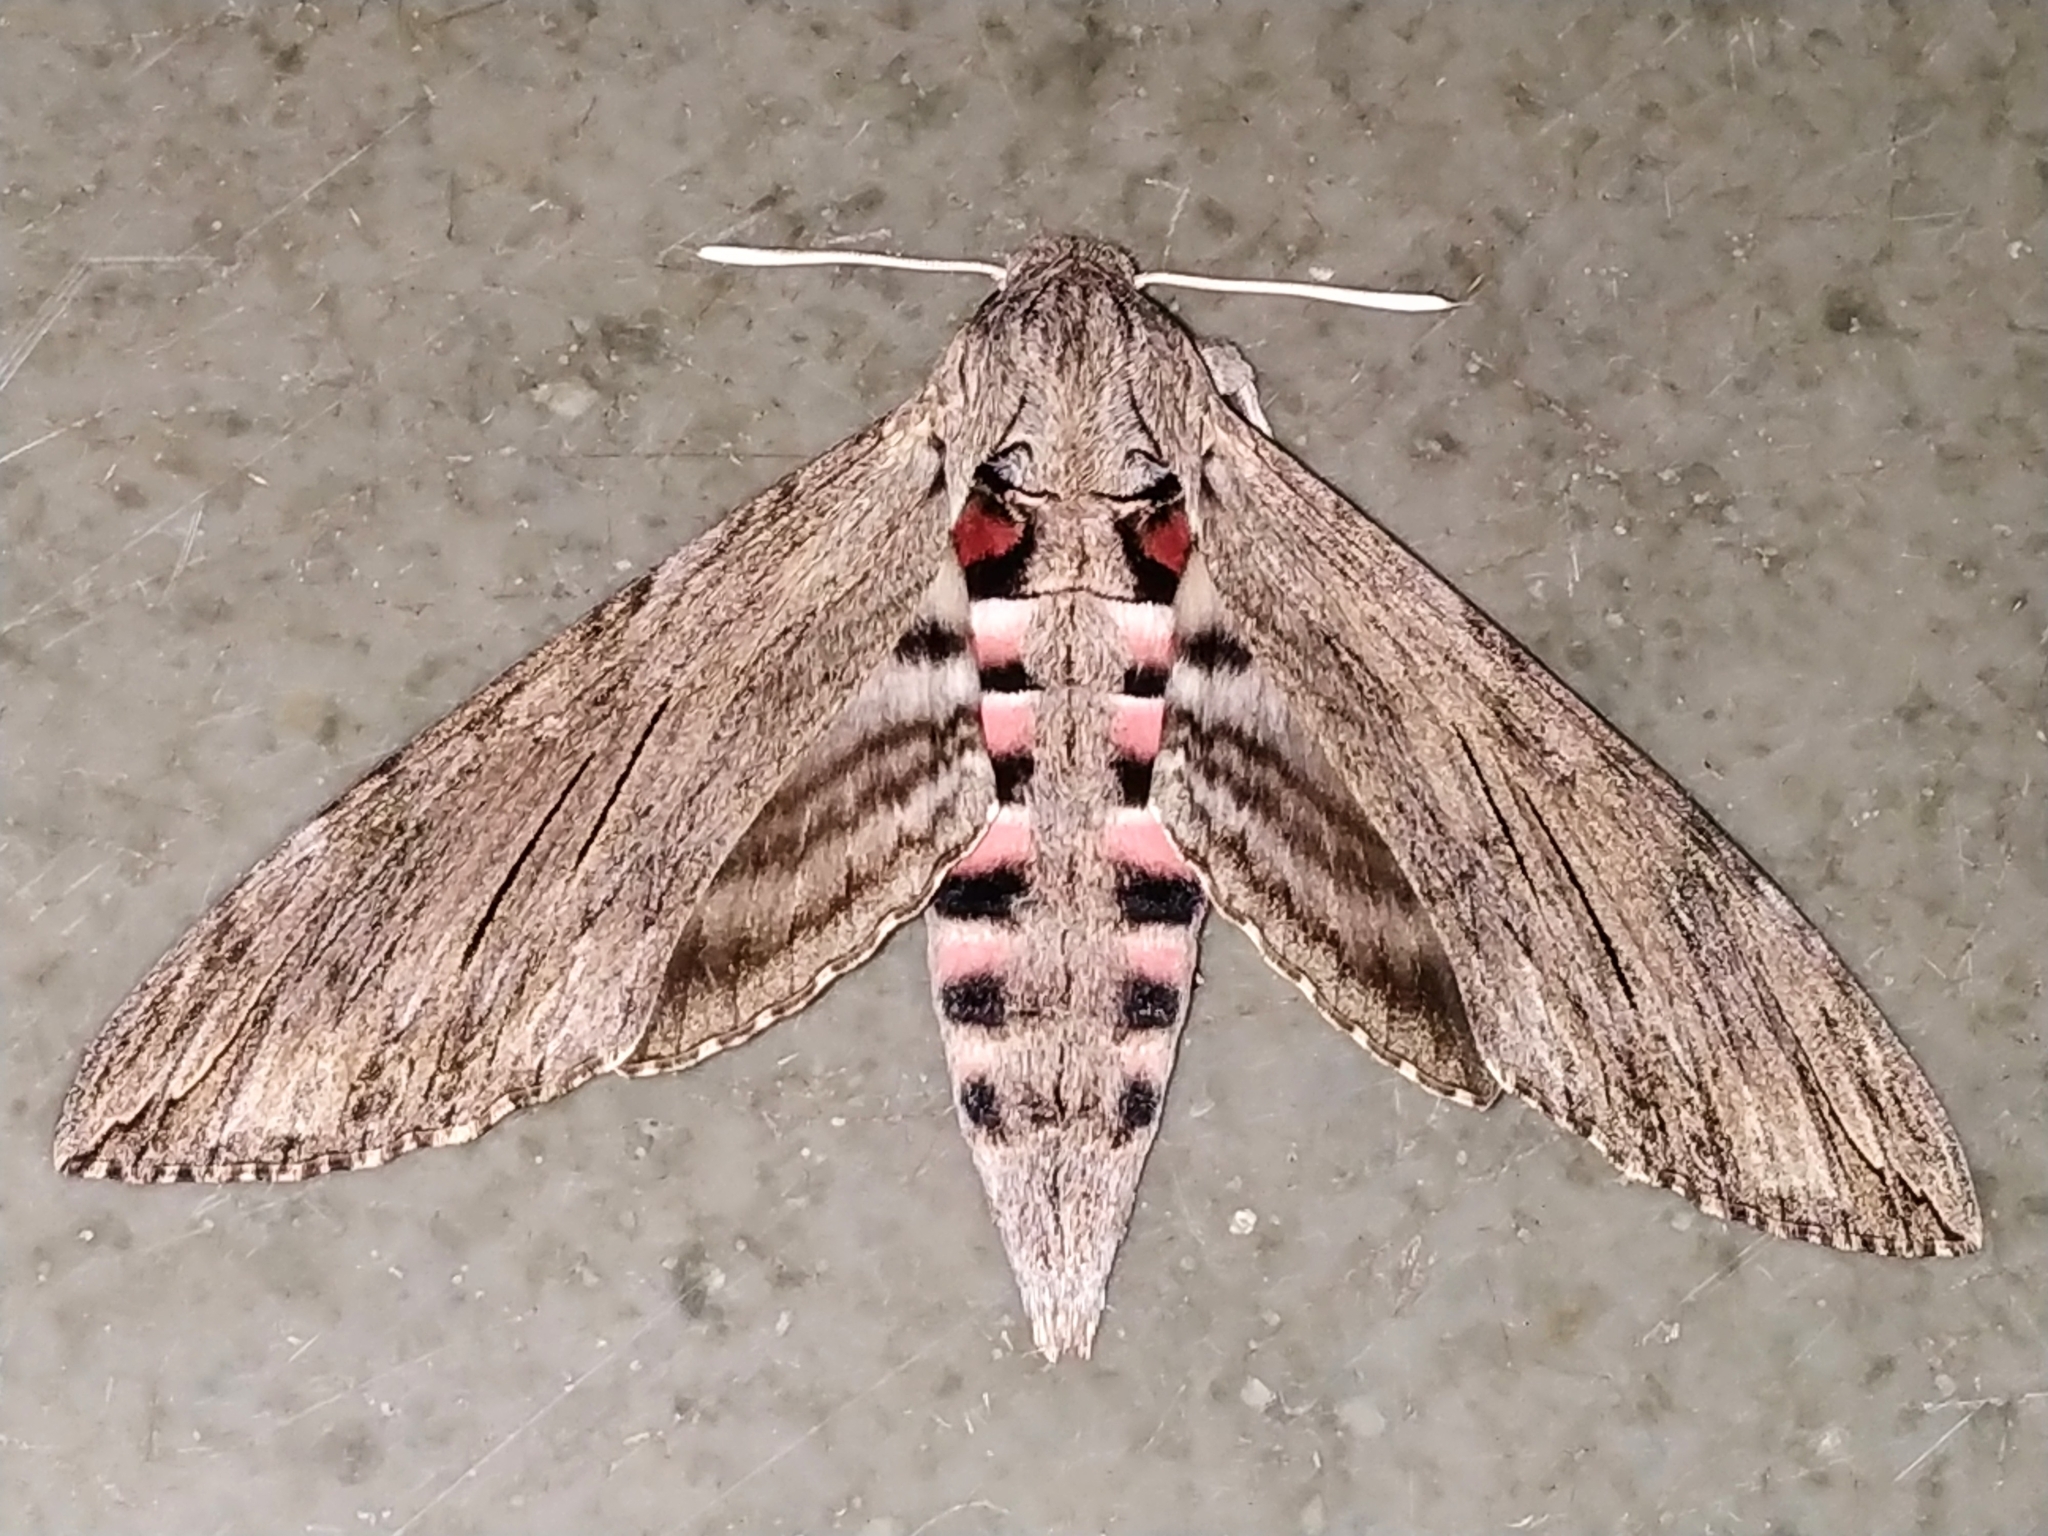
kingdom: Animalia
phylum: Arthropoda
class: Insecta
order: Lepidoptera
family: Sphingidae
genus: Agrius
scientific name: Agrius convolvuli
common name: Convolvulus hawkmoth
